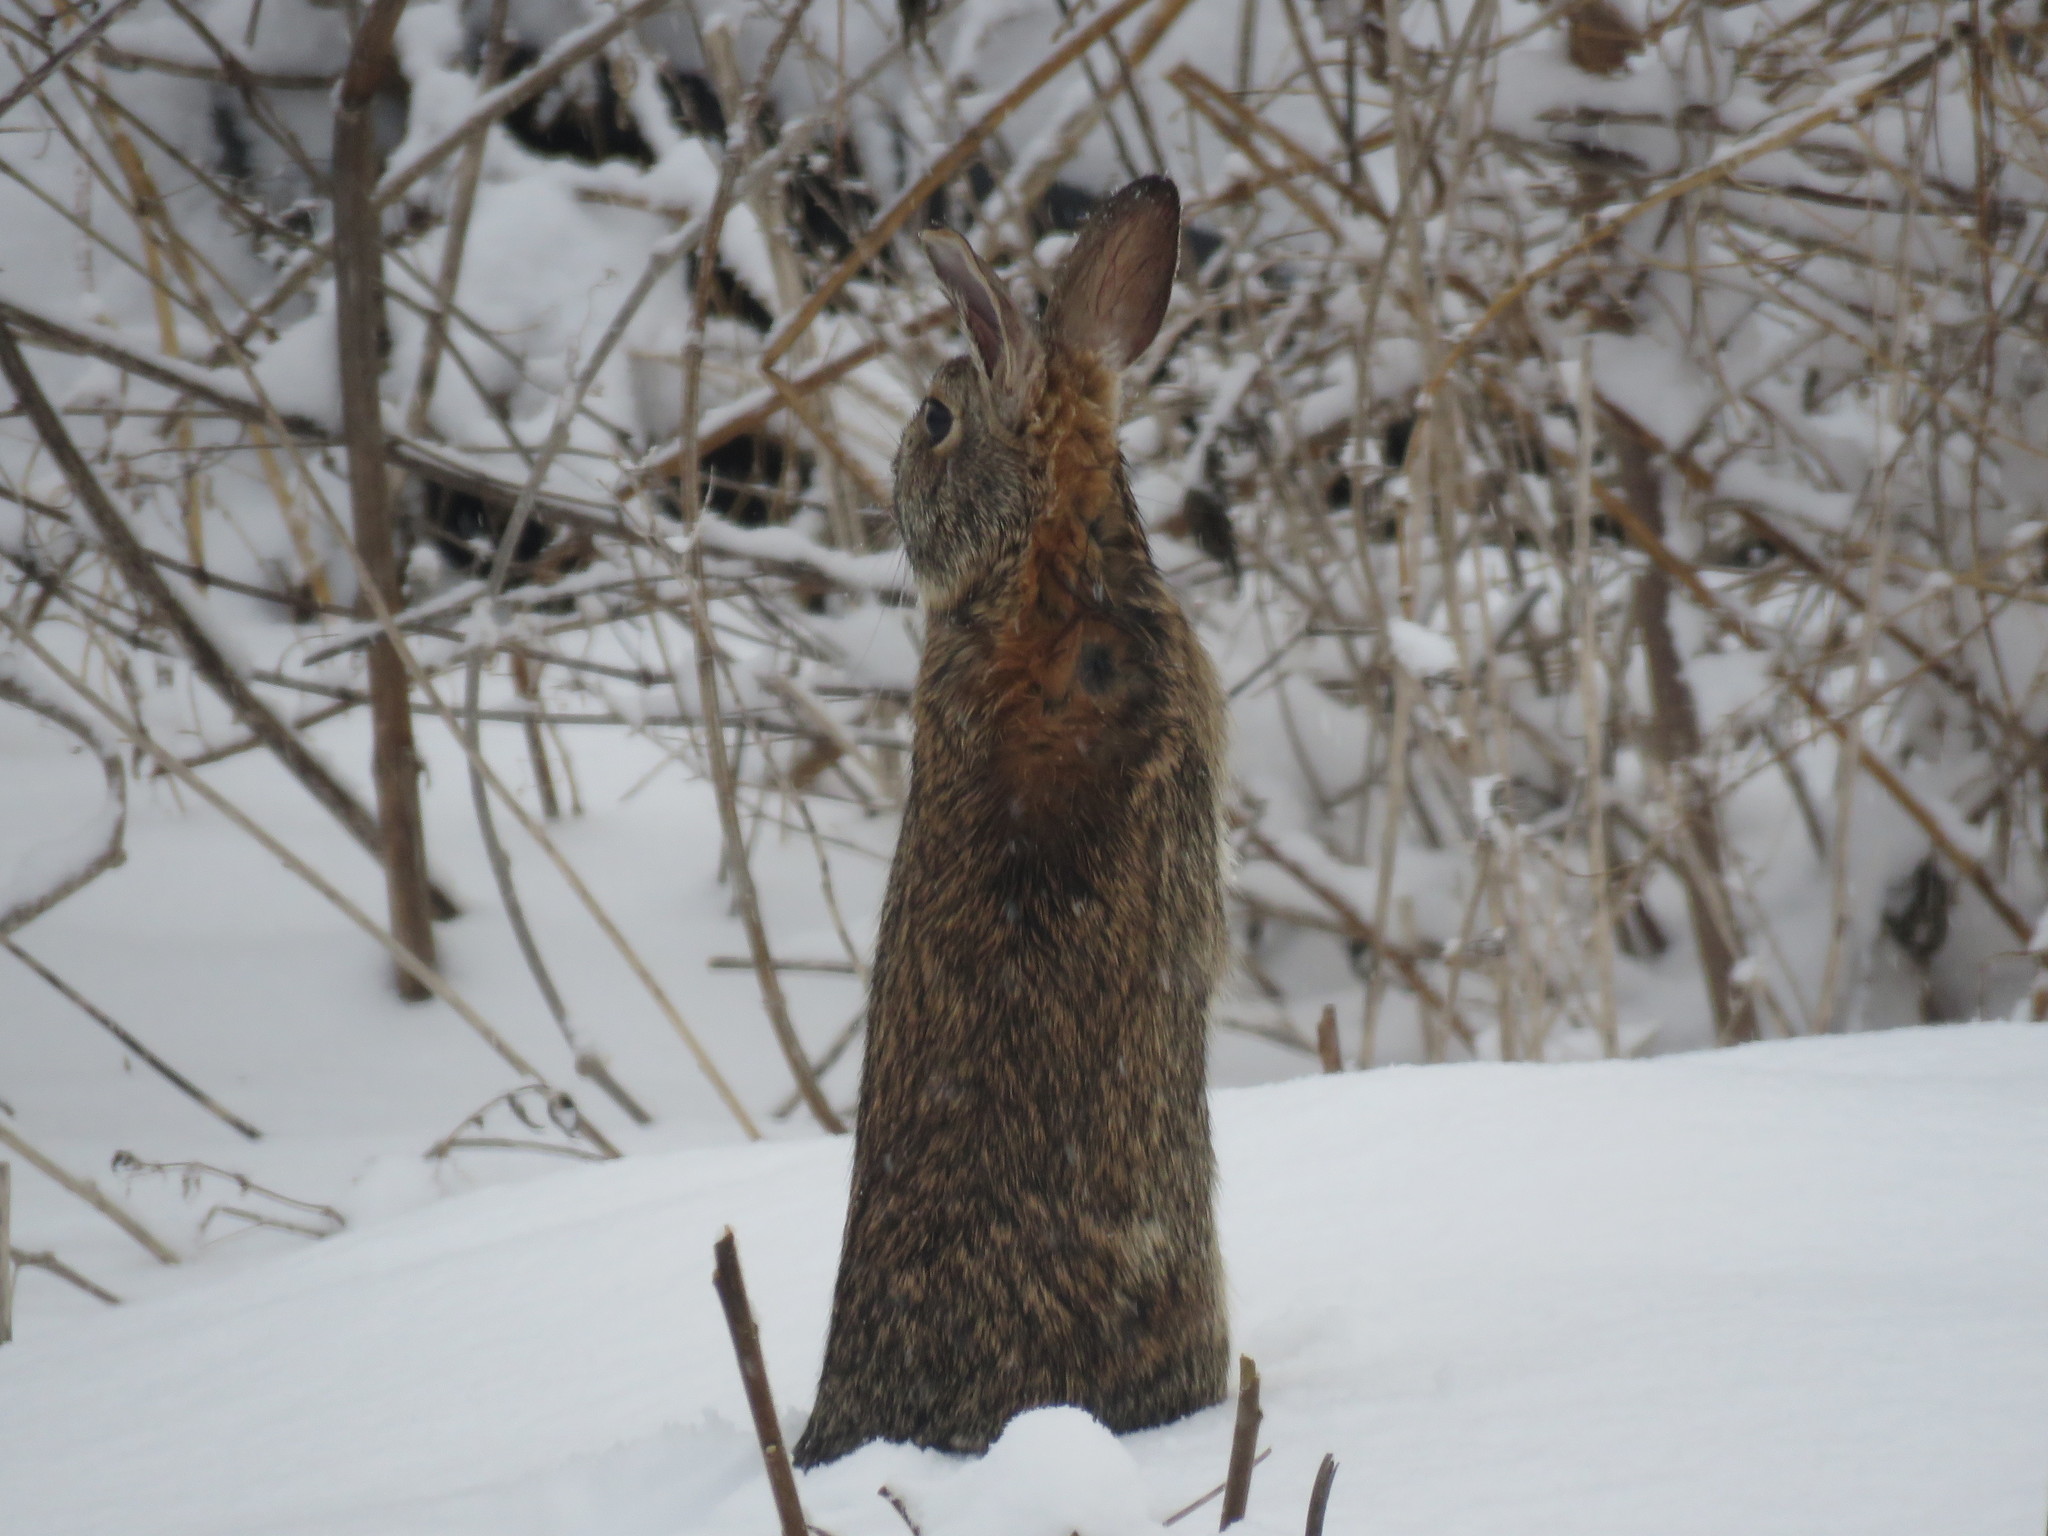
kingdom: Animalia
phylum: Chordata
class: Mammalia
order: Lagomorpha
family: Leporidae
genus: Sylvilagus
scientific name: Sylvilagus floridanus
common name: Eastern cottontail
